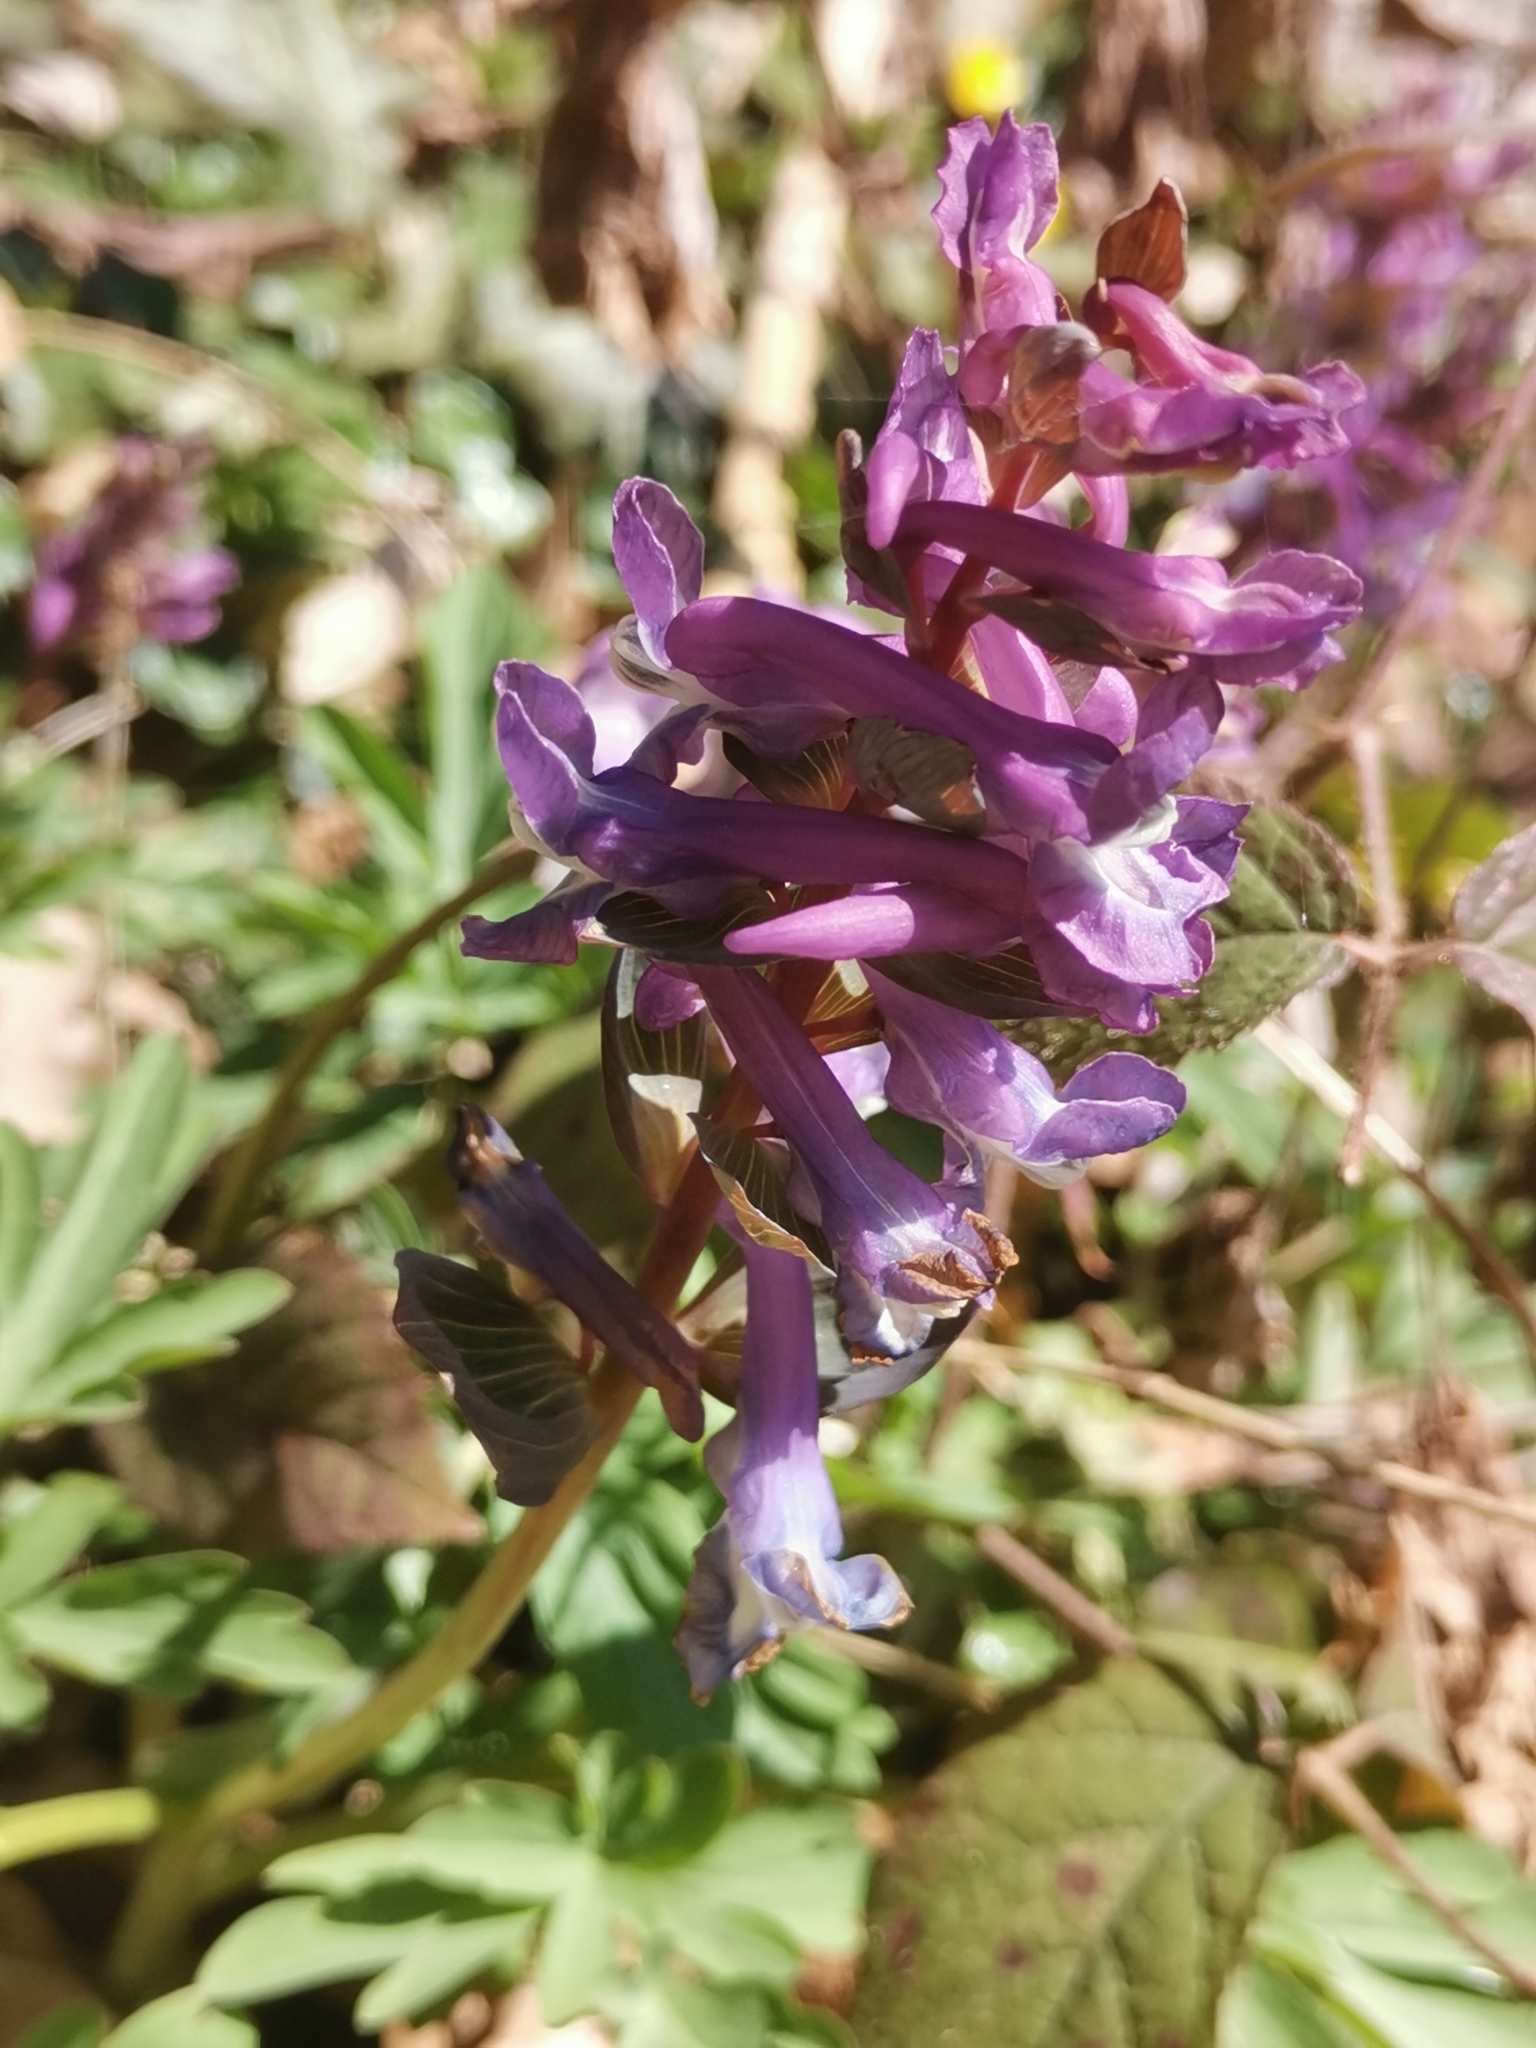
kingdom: Plantae
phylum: Tracheophyta
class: Magnoliopsida
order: Ranunculales
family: Papaveraceae
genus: Corydalis
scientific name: Corydalis cava
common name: Hollowroot
